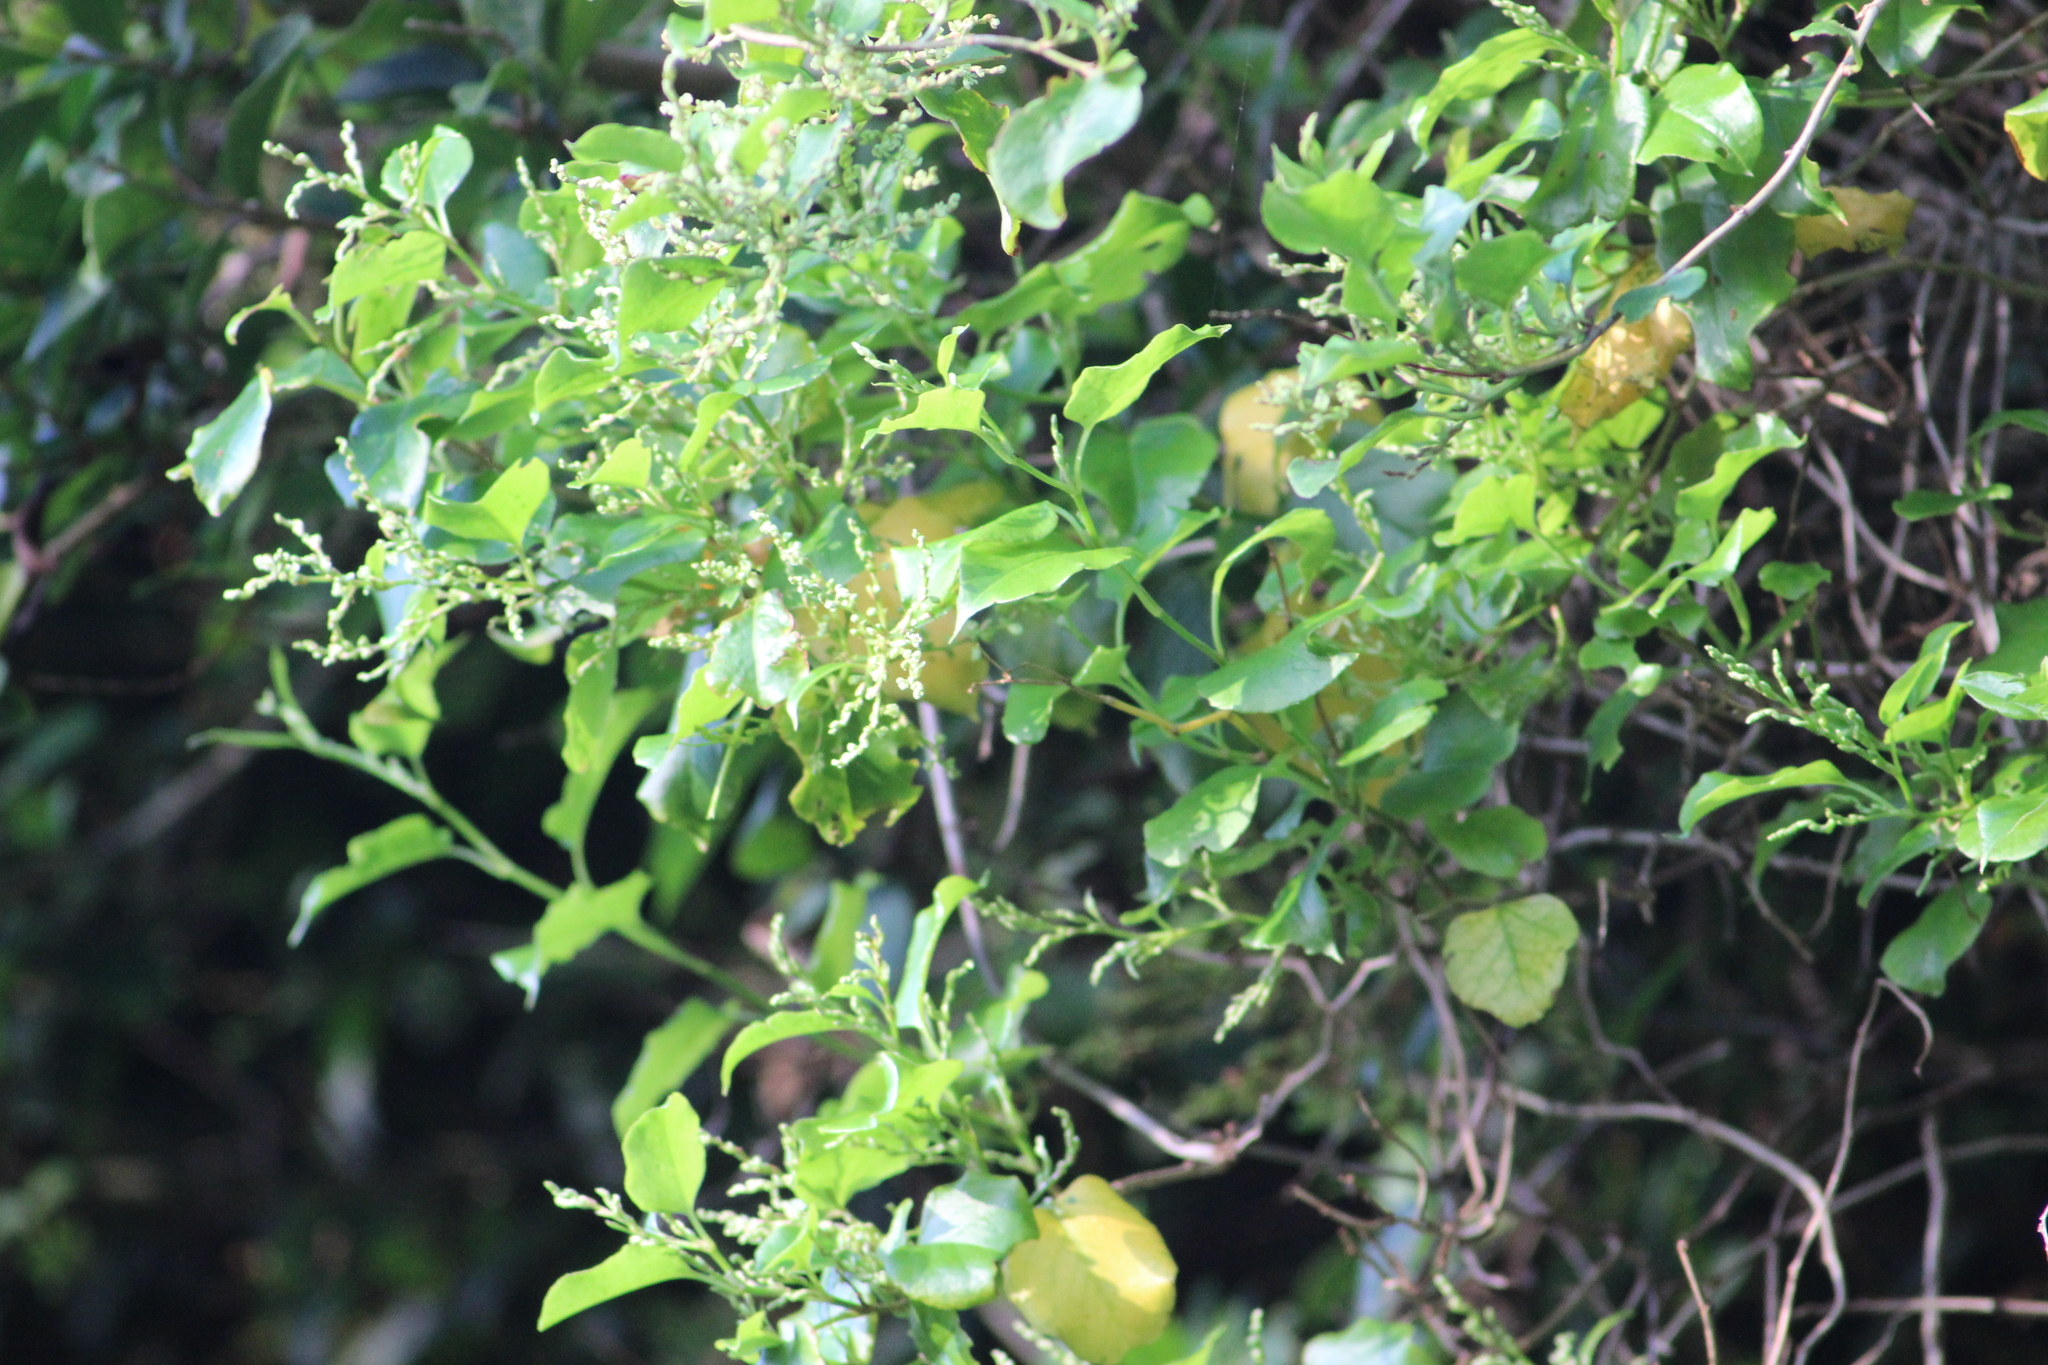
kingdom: Plantae
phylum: Tracheophyta
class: Magnoliopsida
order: Caryophyllales
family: Polygonaceae
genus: Muehlenbeckia
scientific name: Muehlenbeckia australis
